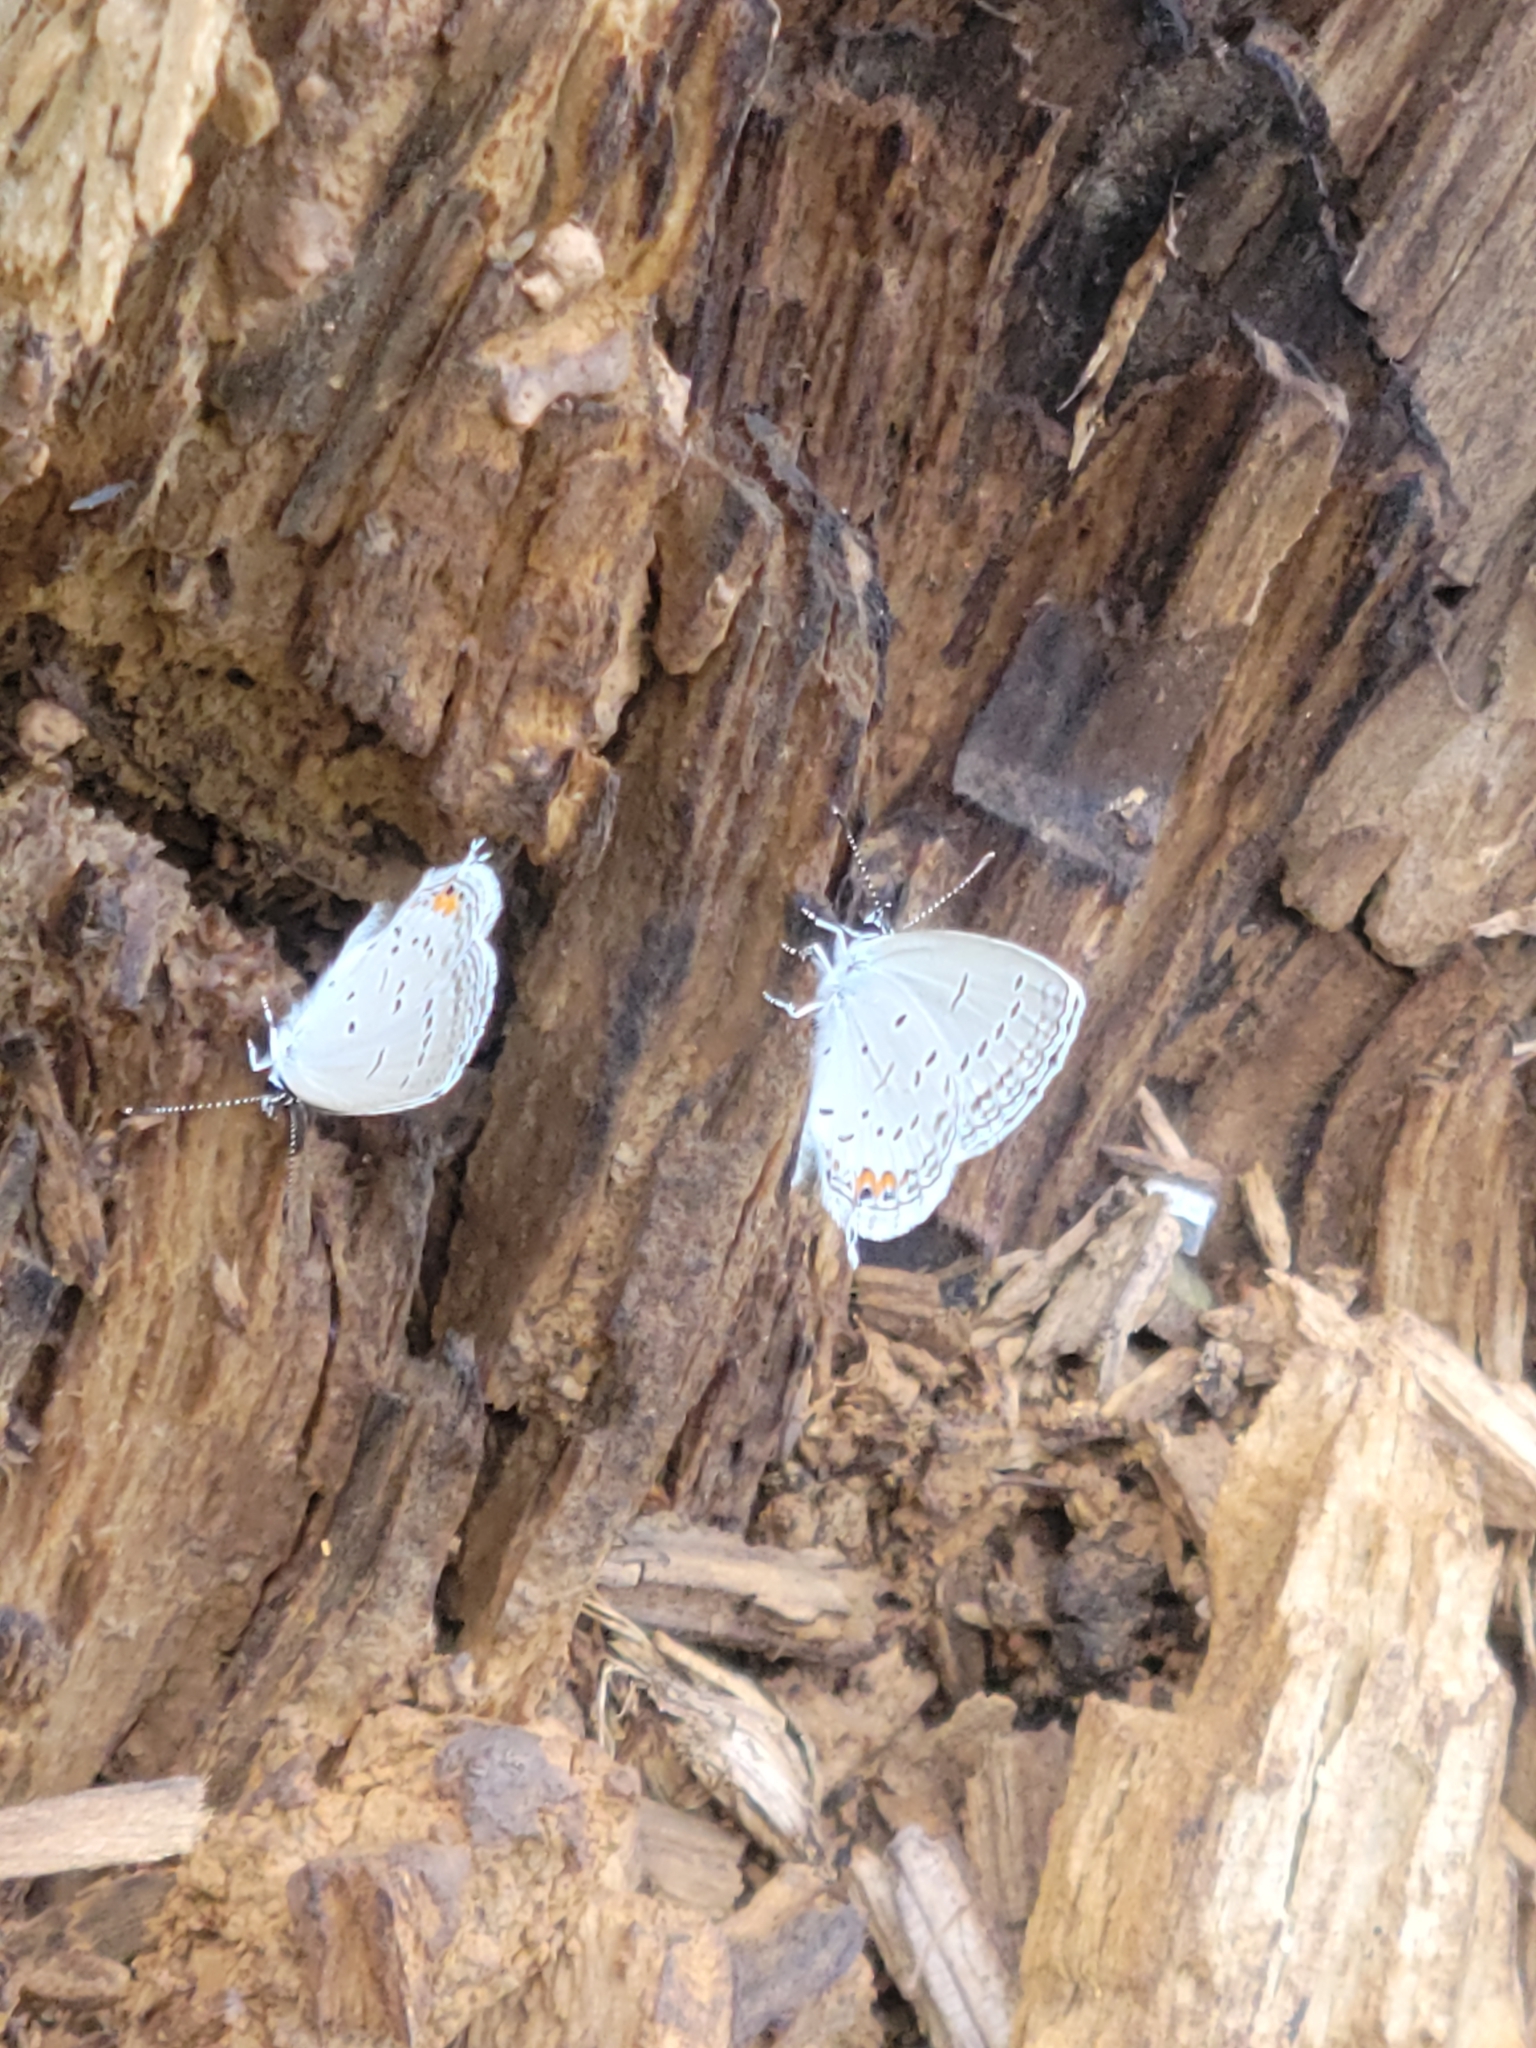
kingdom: Animalia
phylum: Arthropoda
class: Insecta
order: Lepidoptera
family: Lycaenidae
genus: Elkalyce
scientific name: Elkalyce comyntas
